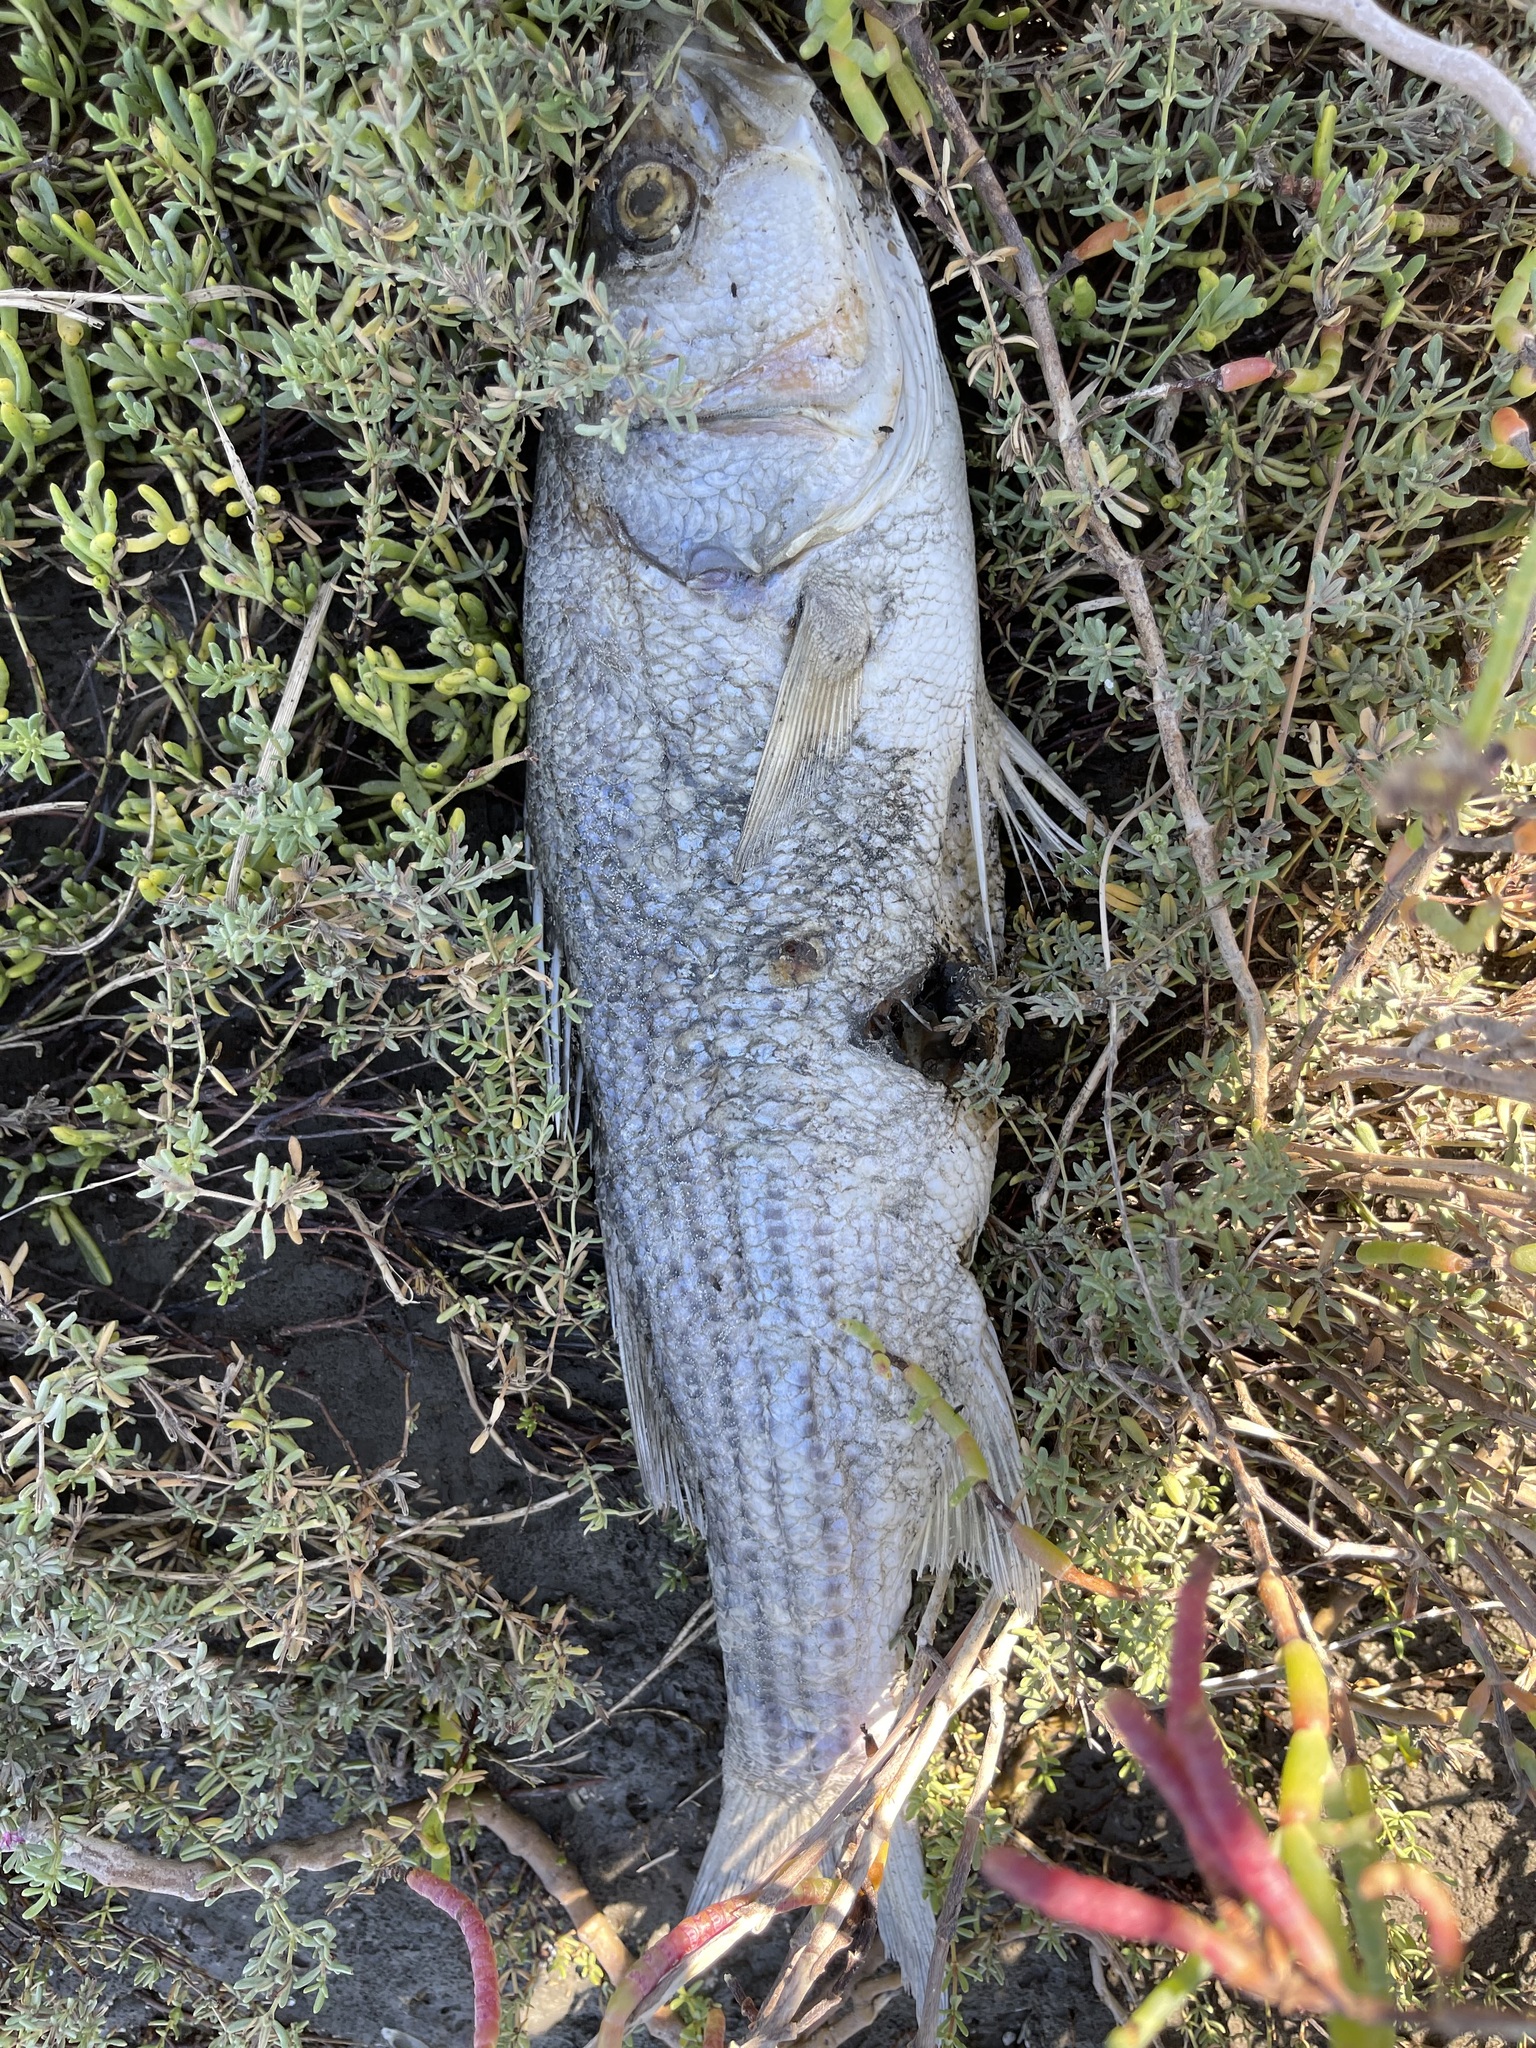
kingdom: Animalia
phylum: Chordata
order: Perciformes
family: Moronidae
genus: Morone
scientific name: Morone saxatilis
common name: Striped bass
